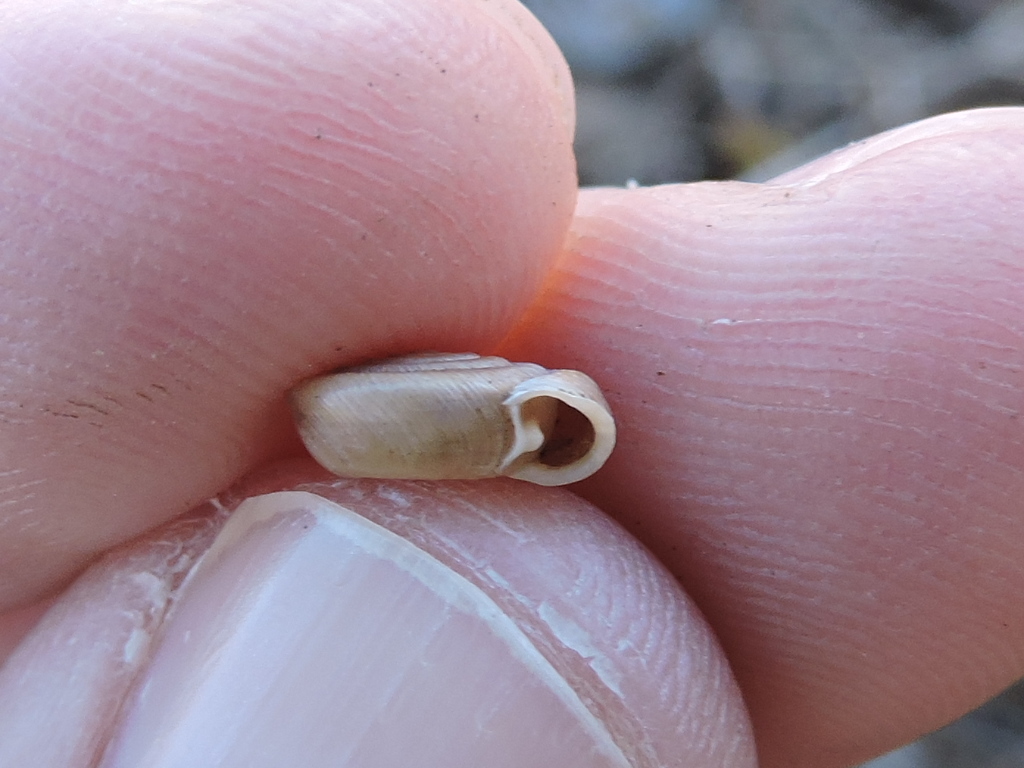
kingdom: Animalia
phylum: Mollusca
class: Gastropoda
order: Stylommatophora
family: Polygyridae
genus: Polygyra
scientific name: Polygyra septemvolva
